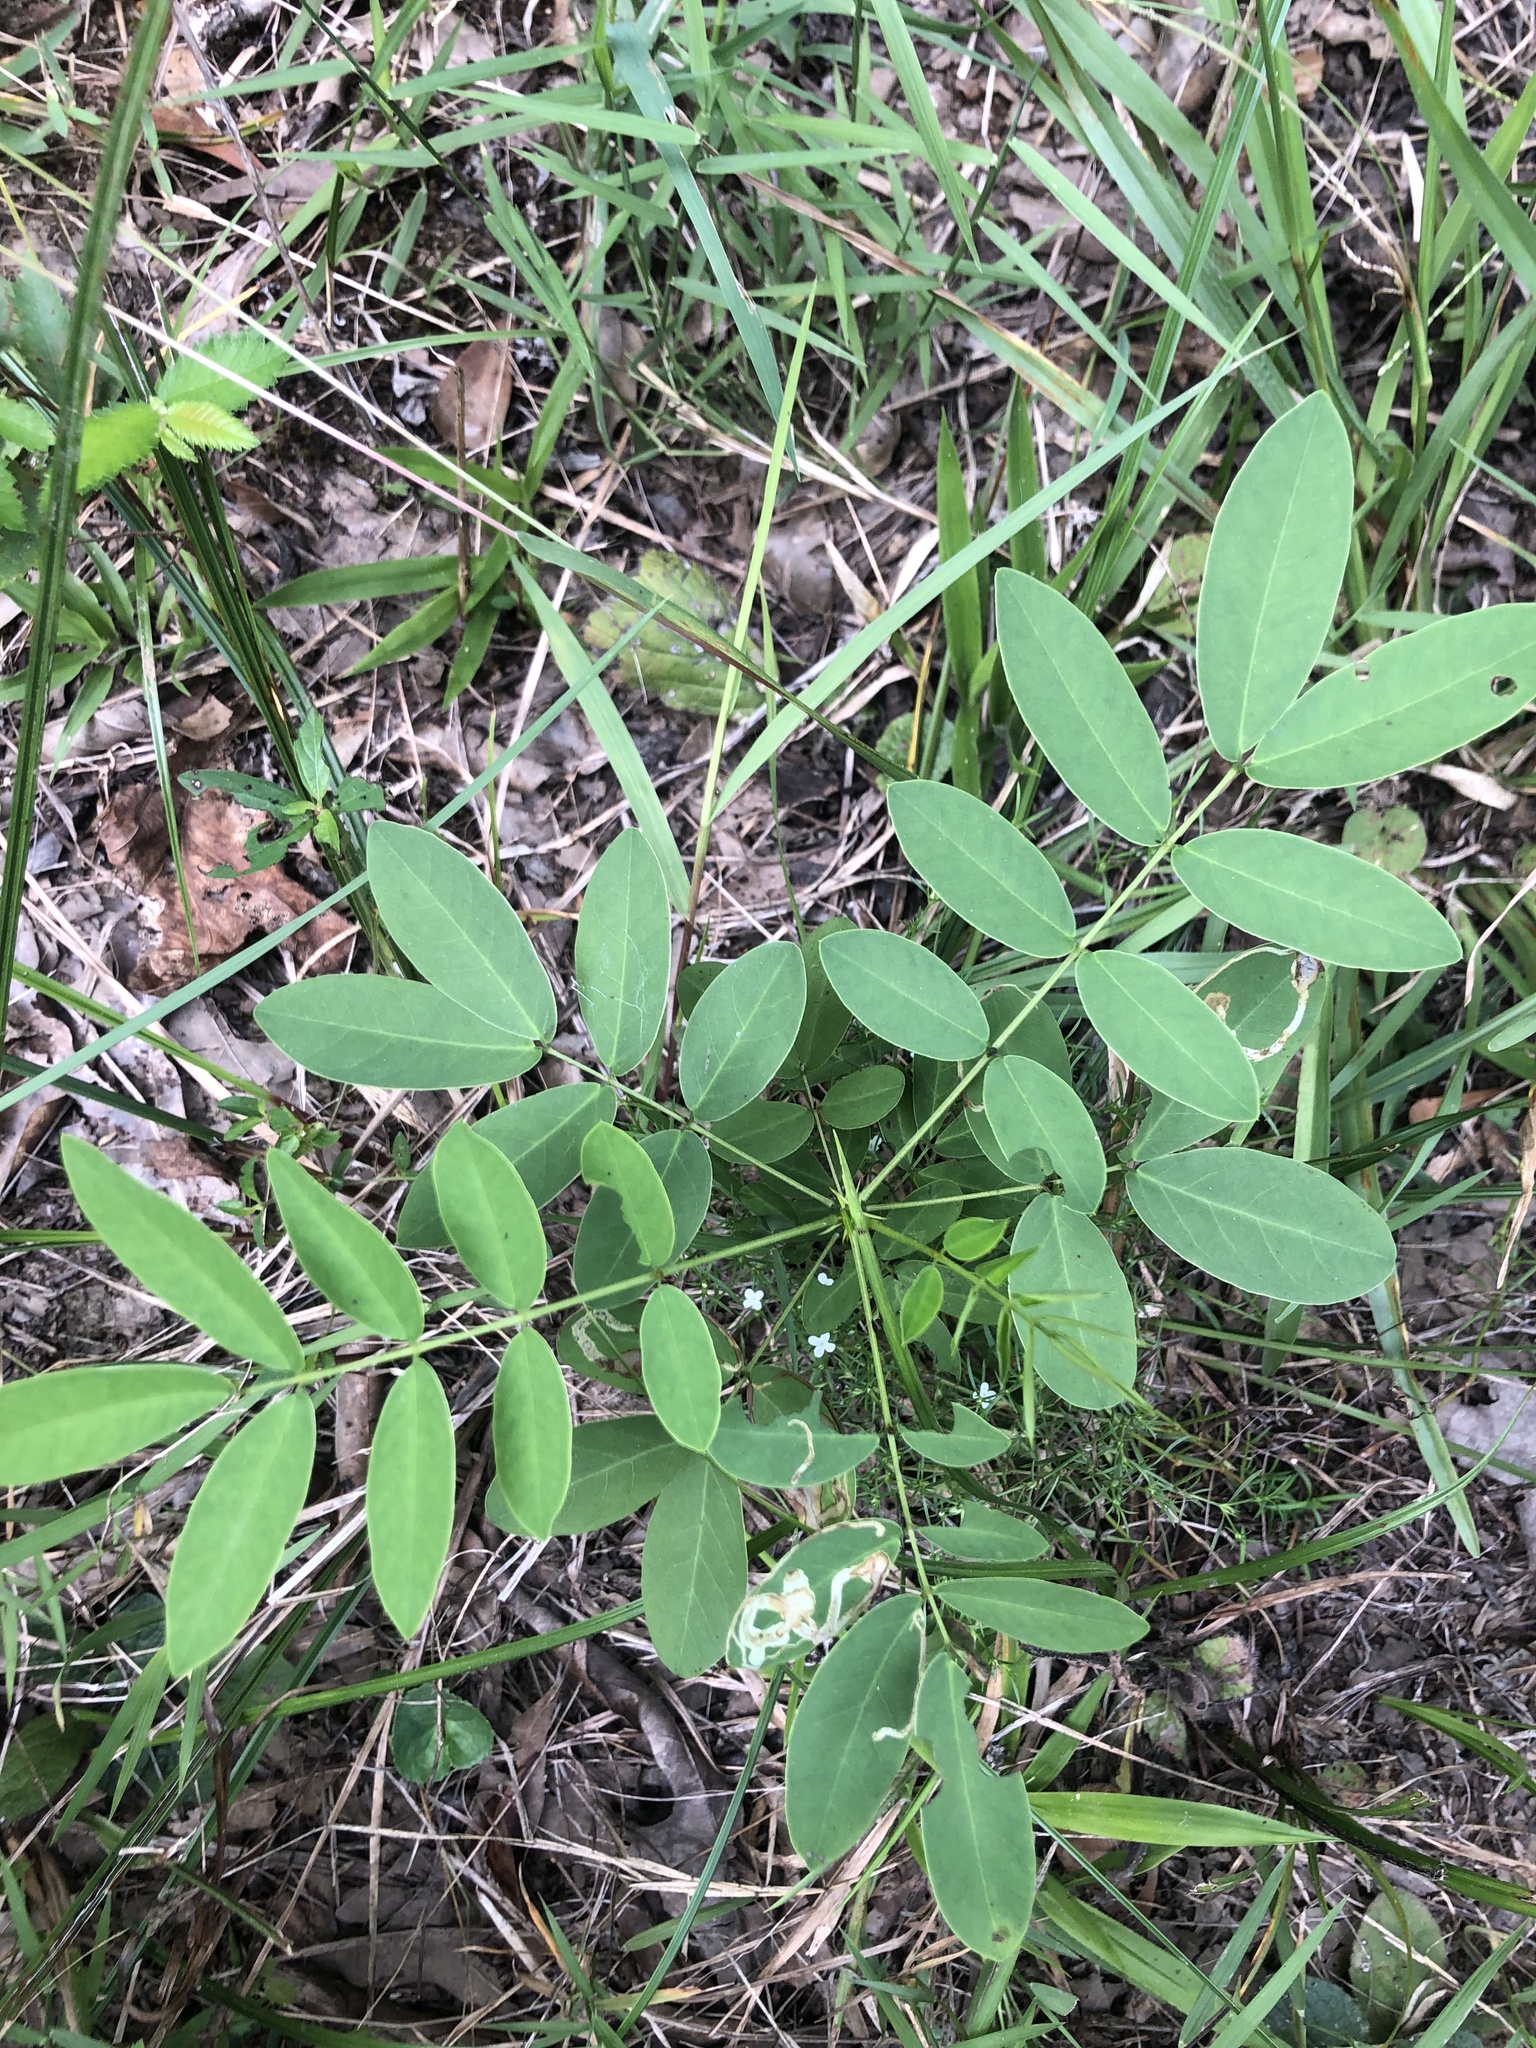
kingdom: Plantae
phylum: Tracheophyta
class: Magnoliopsida
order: Fabales
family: Fabaceae
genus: Senna
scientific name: Senna marilandica
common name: American senna
